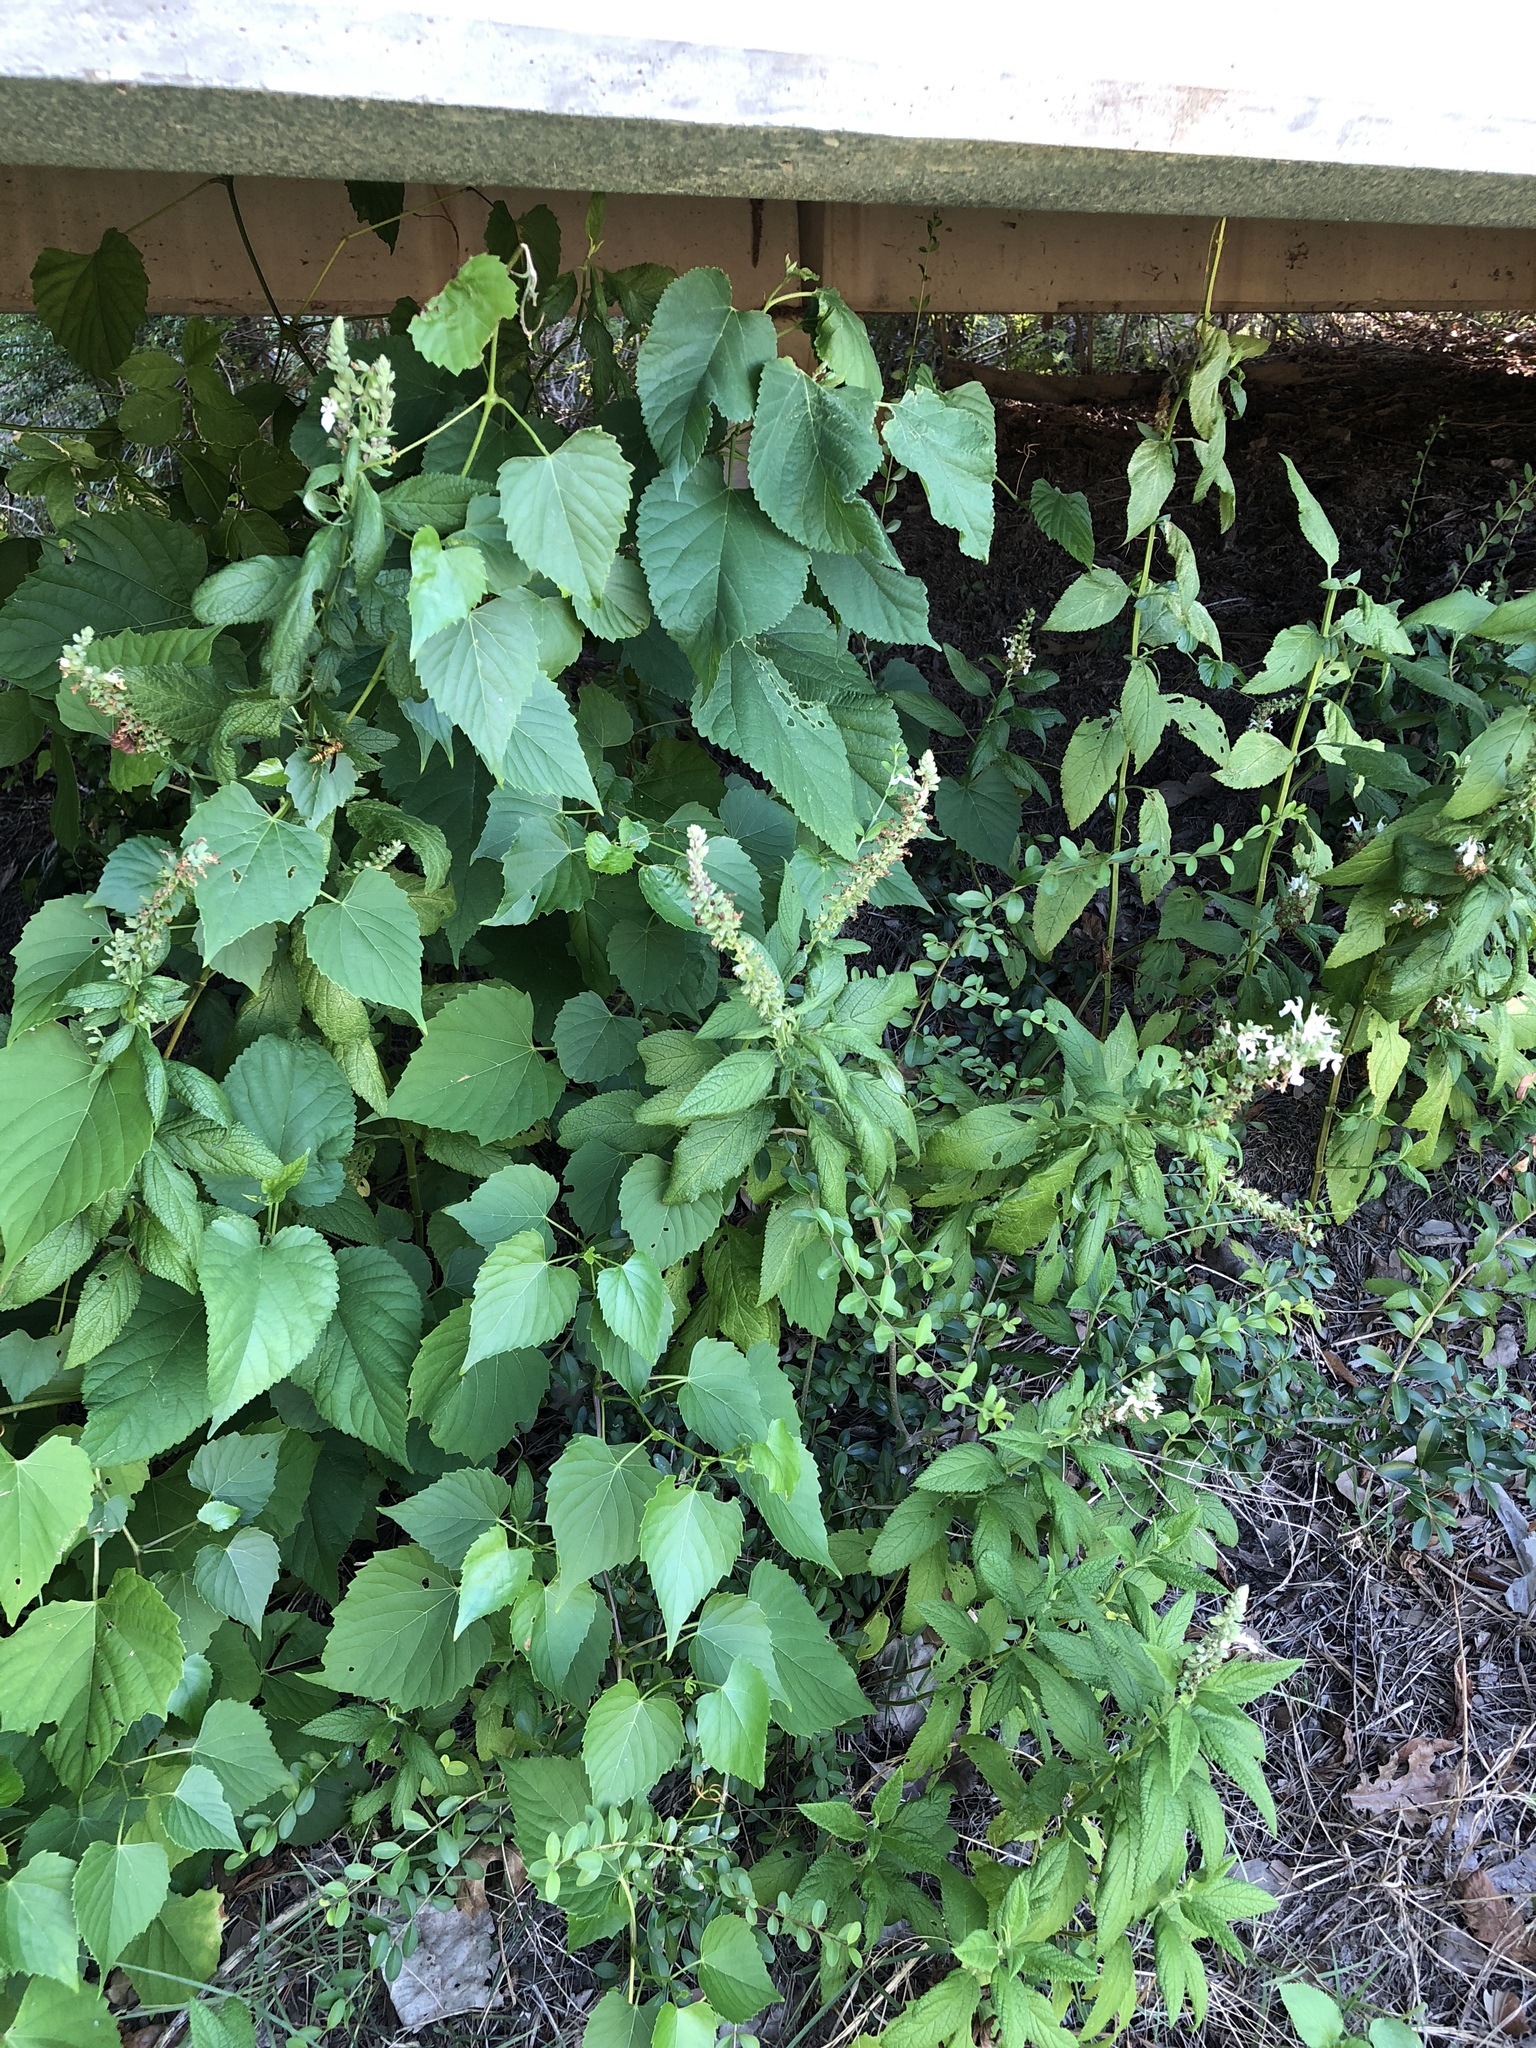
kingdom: Plantae
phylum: Tracheophyta
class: Magnoliopsida
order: Lamiales
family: Lamiaceae
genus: Teucrium
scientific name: Teucrium canadense
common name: American germander
